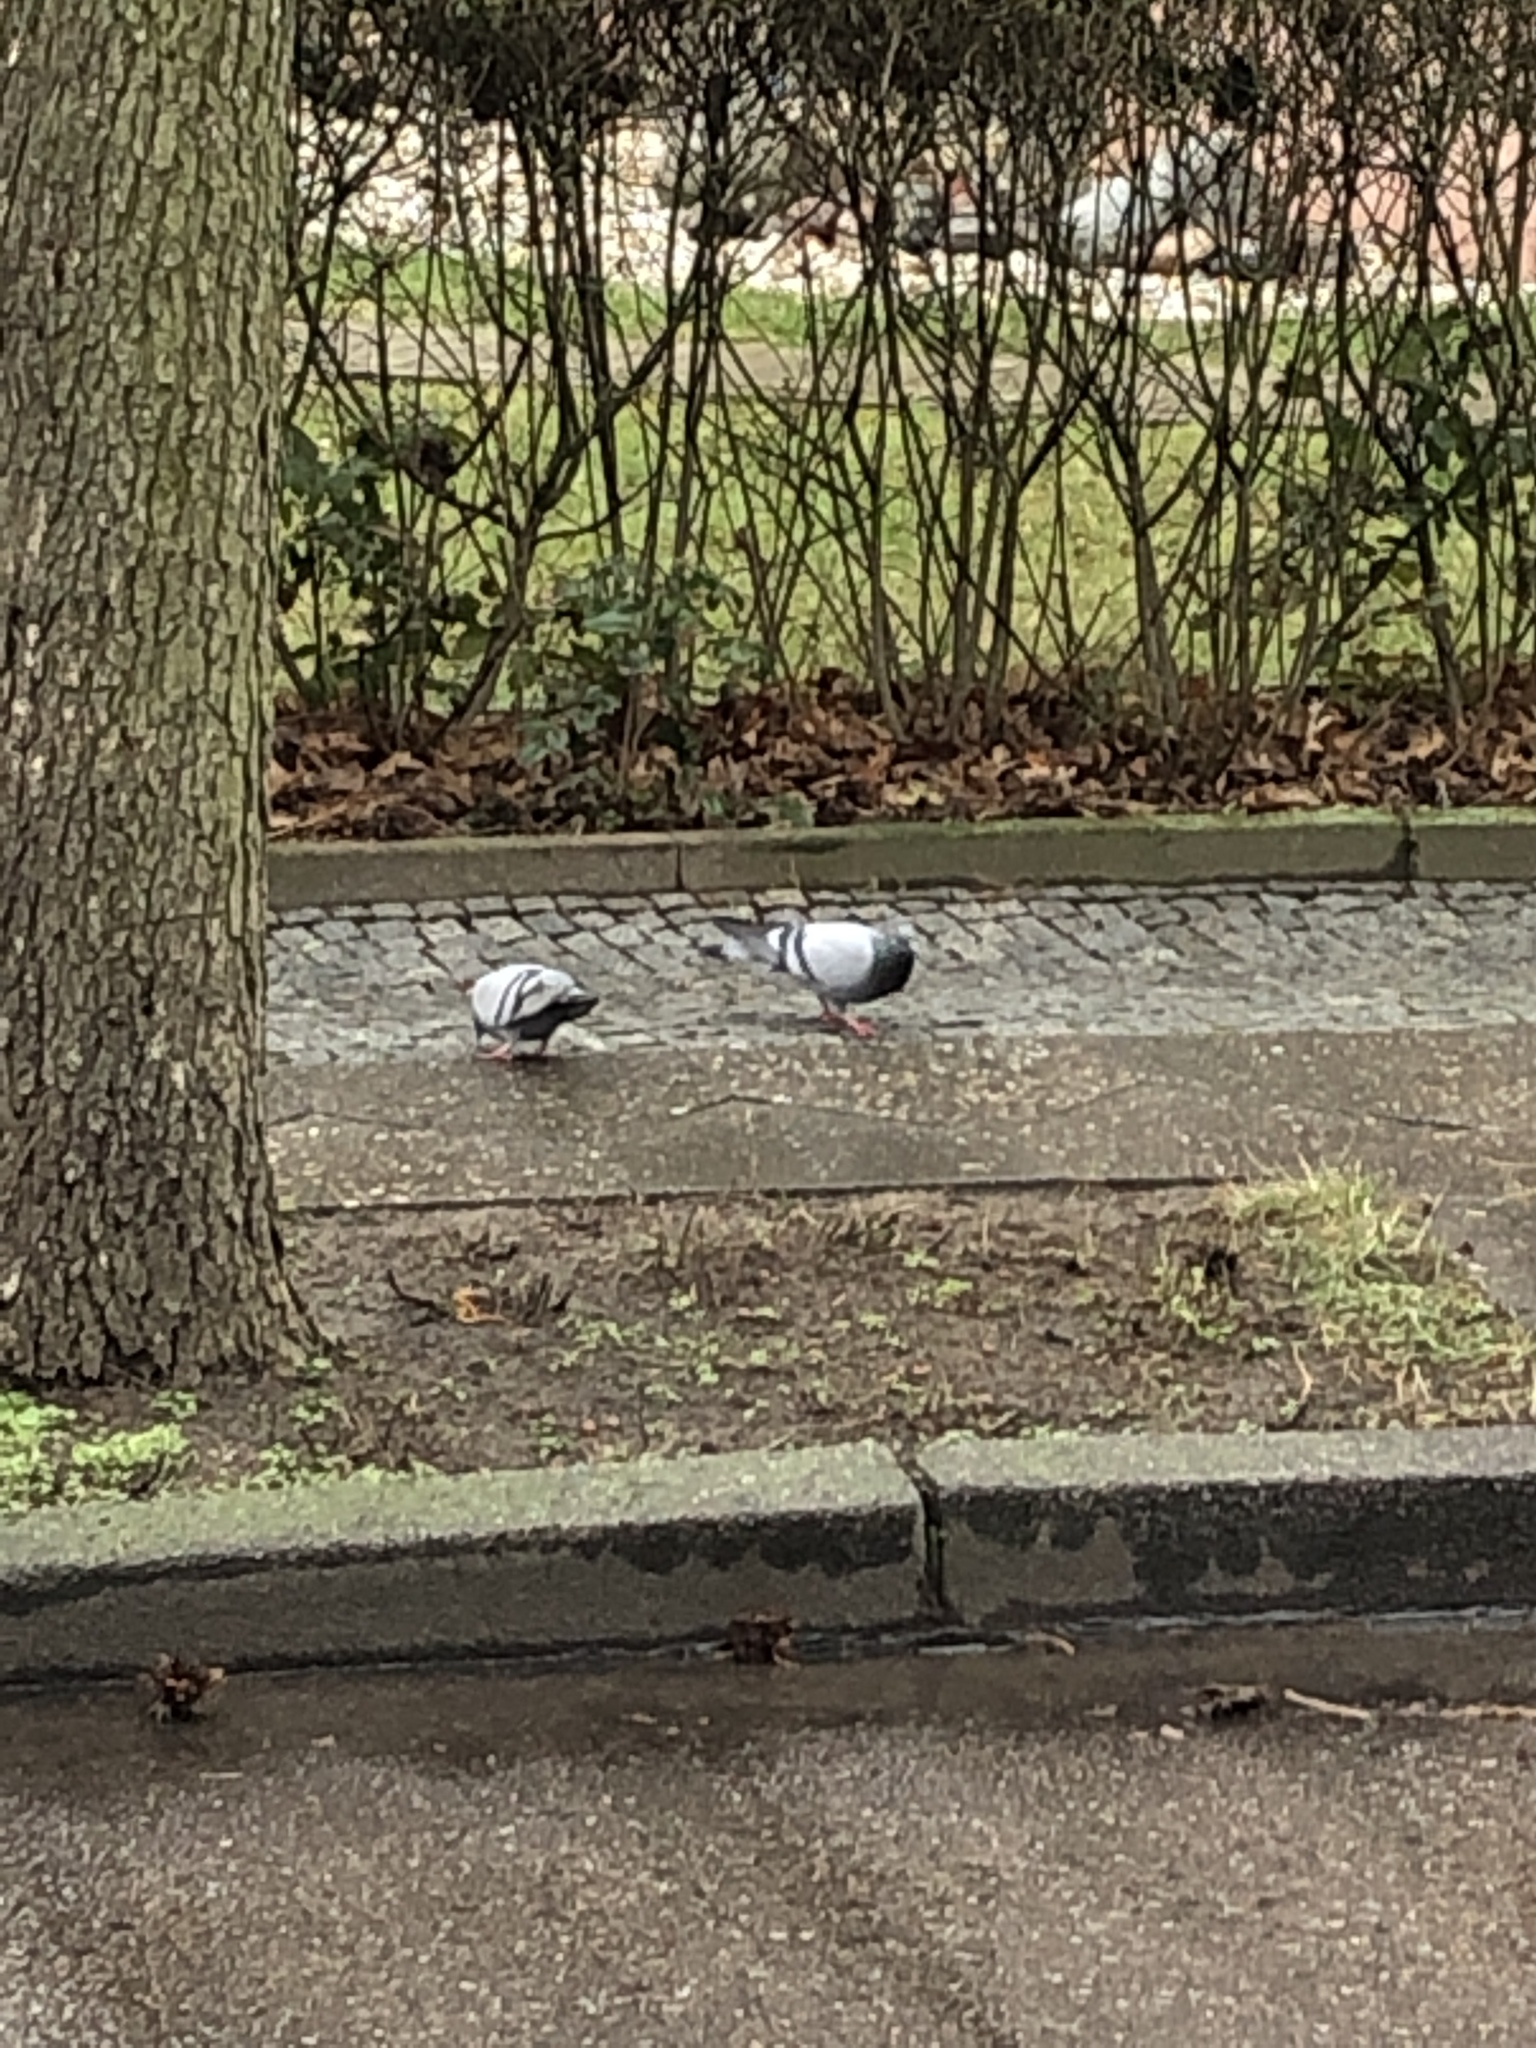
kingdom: Animalia
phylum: Chordata
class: Aves
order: Columbiformes
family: Columbidae
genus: Columba
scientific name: Columba livia
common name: Rock pigeon
